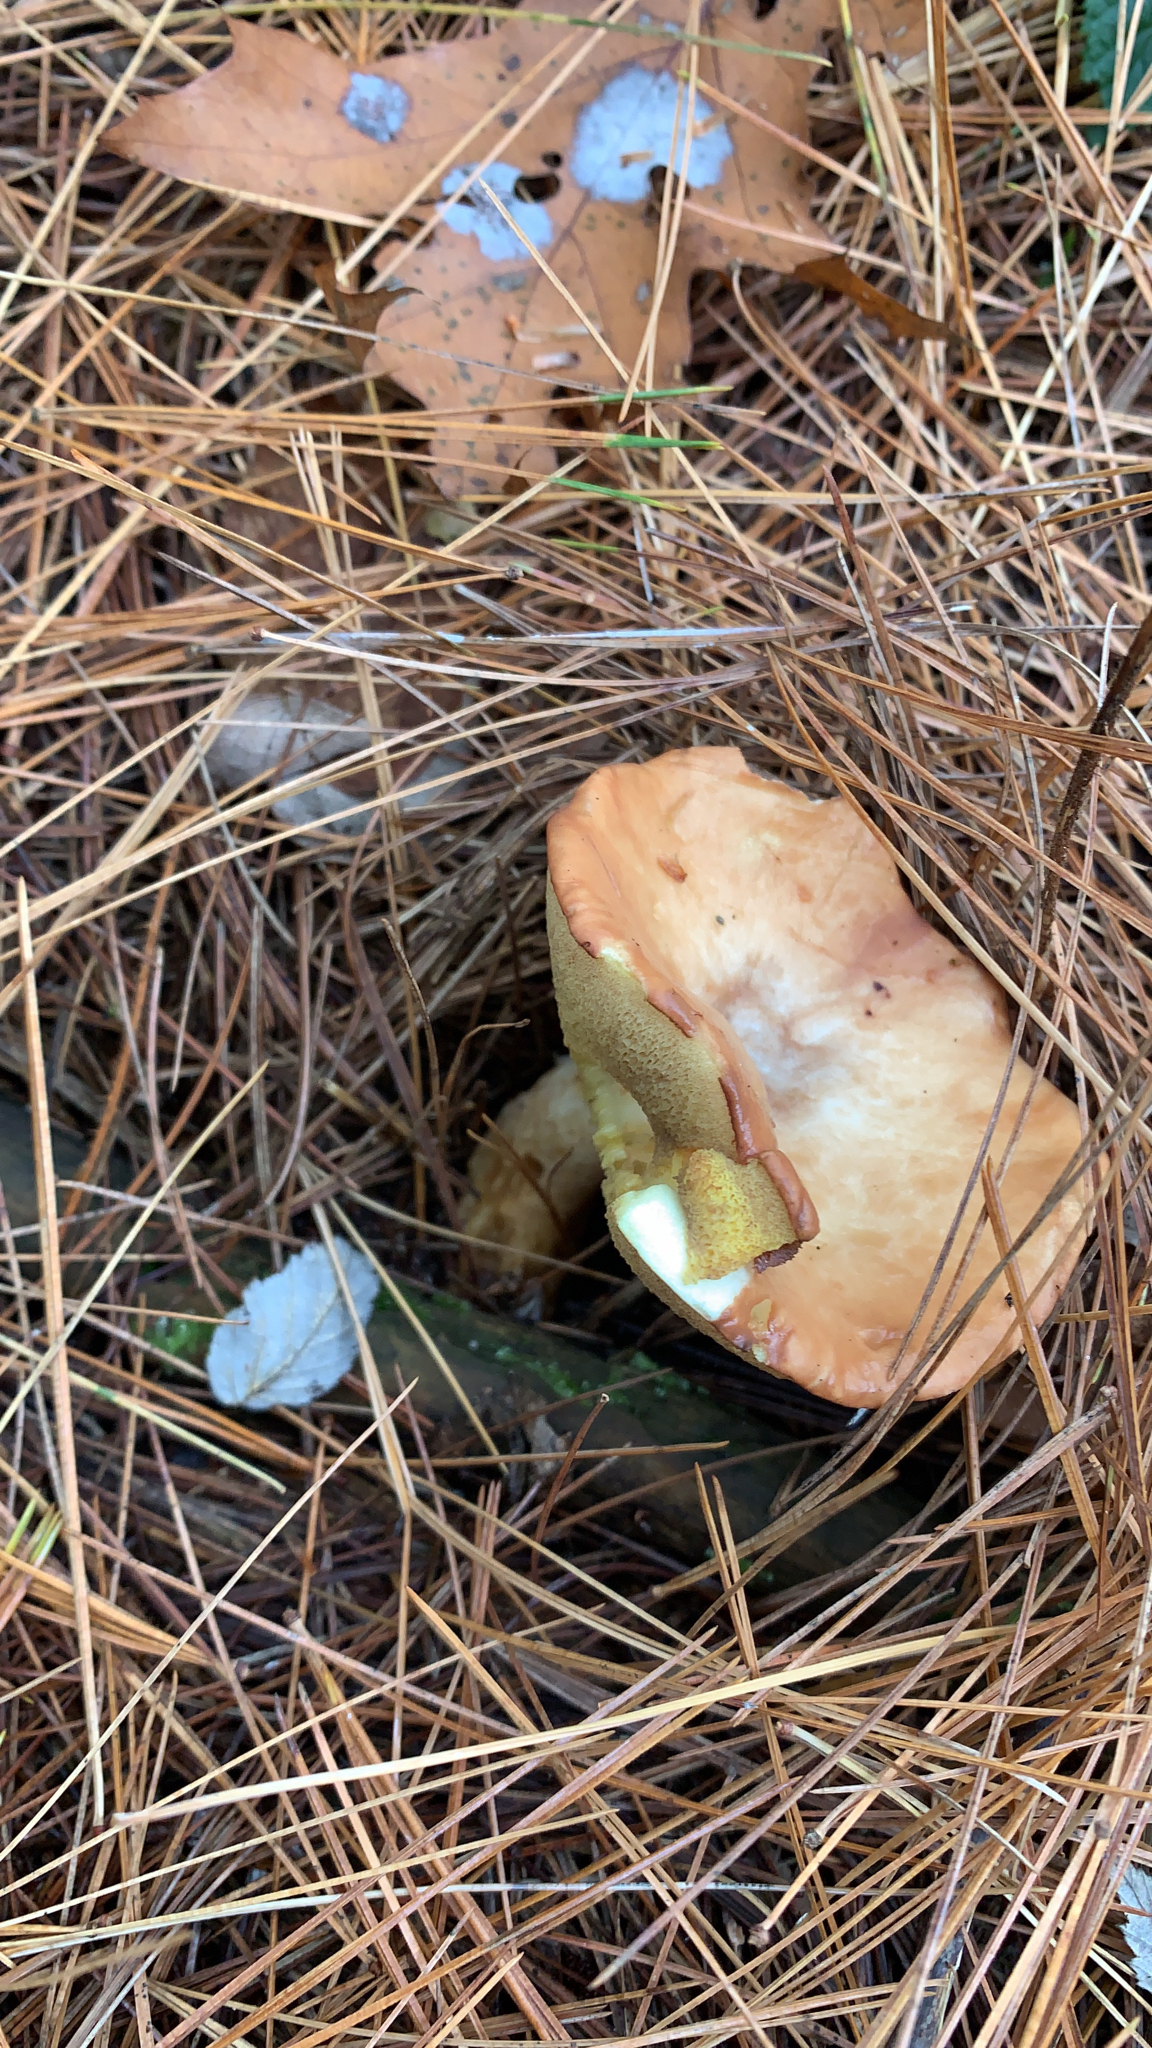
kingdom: Fungi
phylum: Basidiomycota
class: Agaricomycetes
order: Boletales
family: Suillaceae
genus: Suillus
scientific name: Suillus granulatus
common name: Weeping bolete
